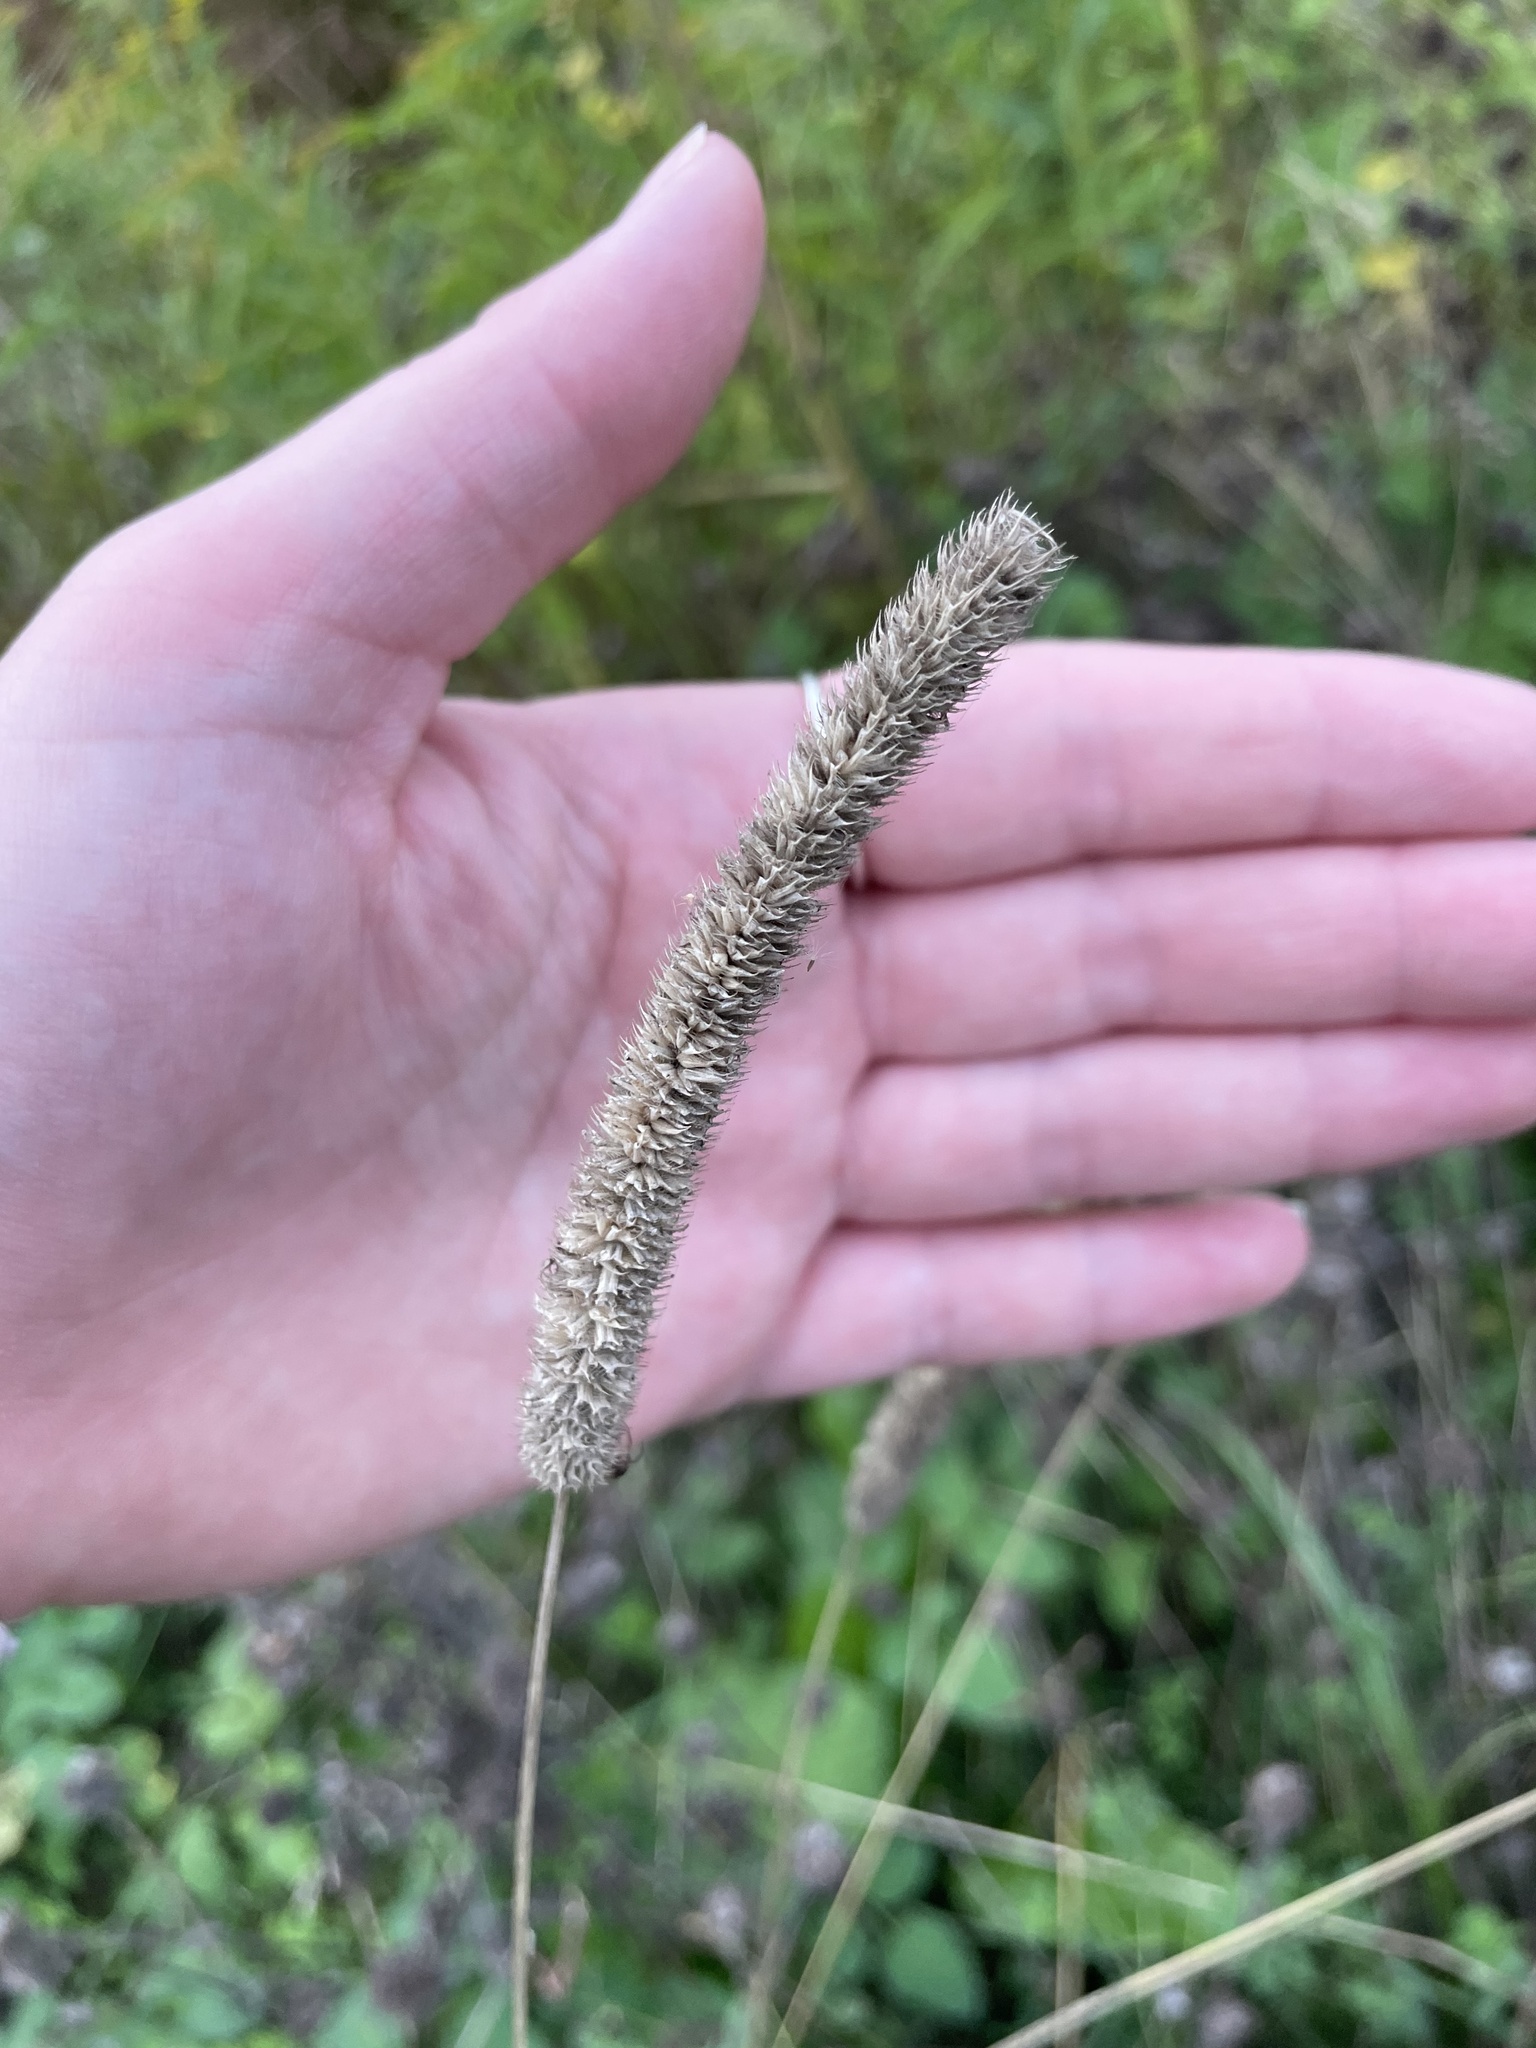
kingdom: Plantae
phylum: Tracheophyta
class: Liliopsida
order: Poales
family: Poaceae
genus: Phleum
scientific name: Phleum pratense
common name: Timothy grass
